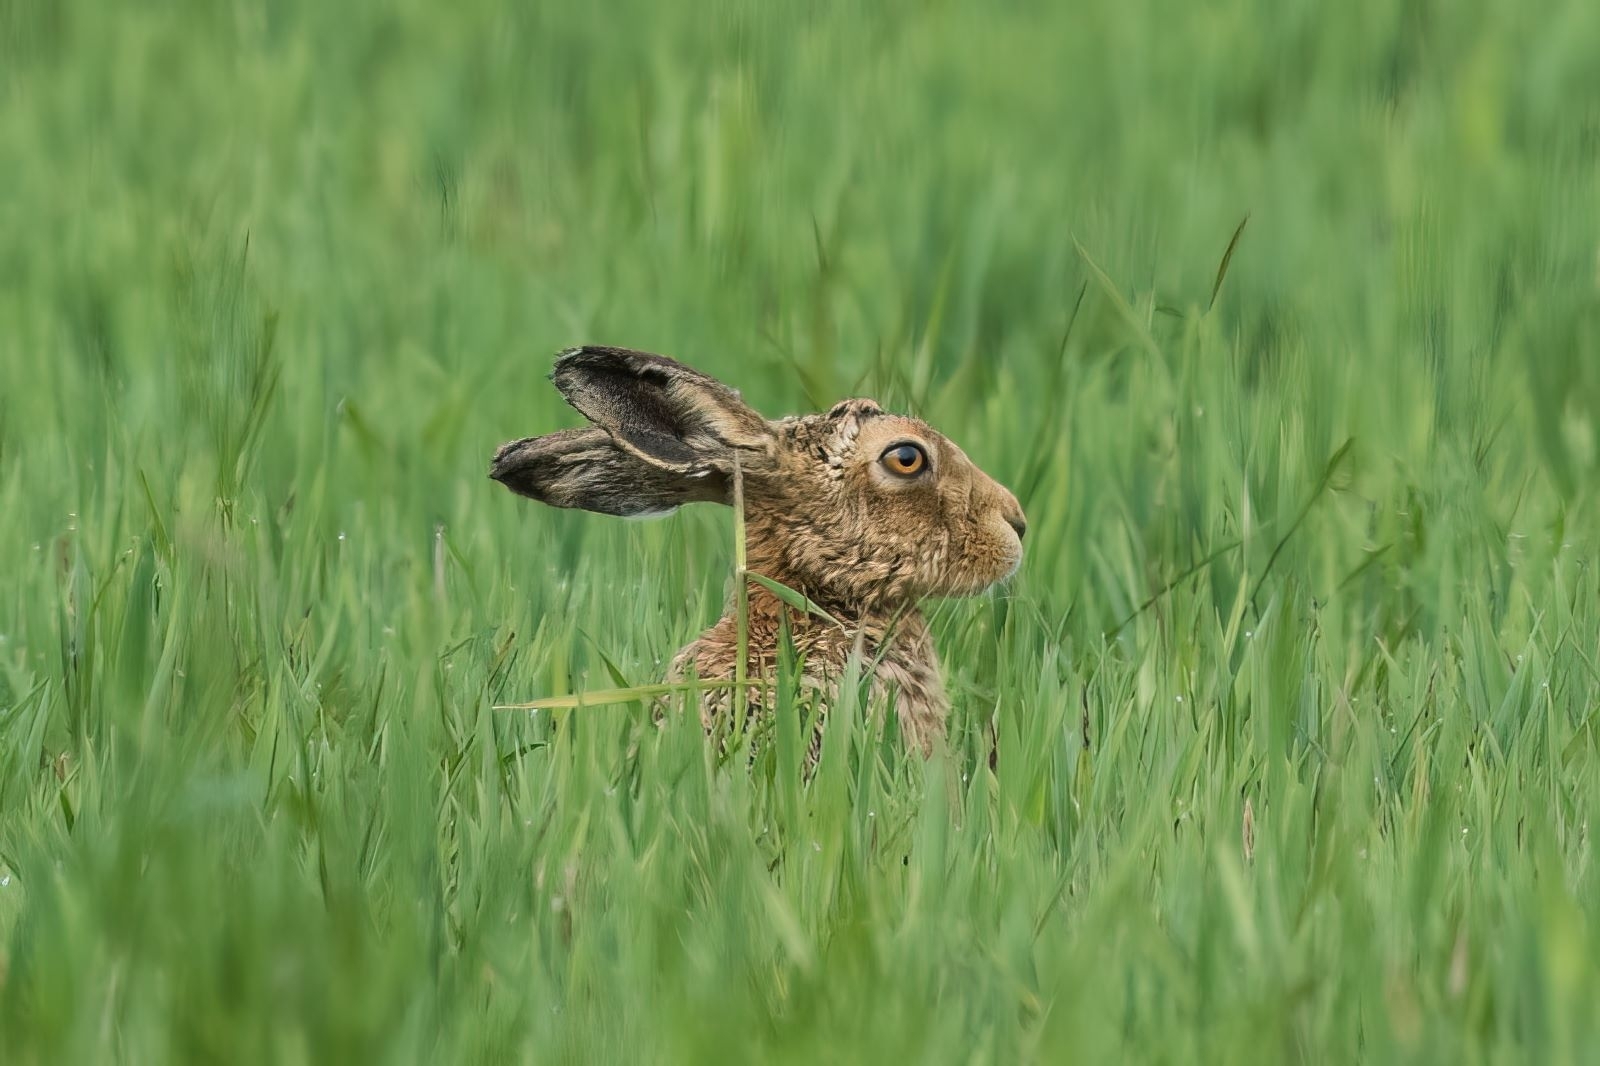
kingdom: Animalia
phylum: Chordata
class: Mammalia
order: Lagomorpha
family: Leporidae
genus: Lepus
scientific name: Lepus europaeus
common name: European hare
